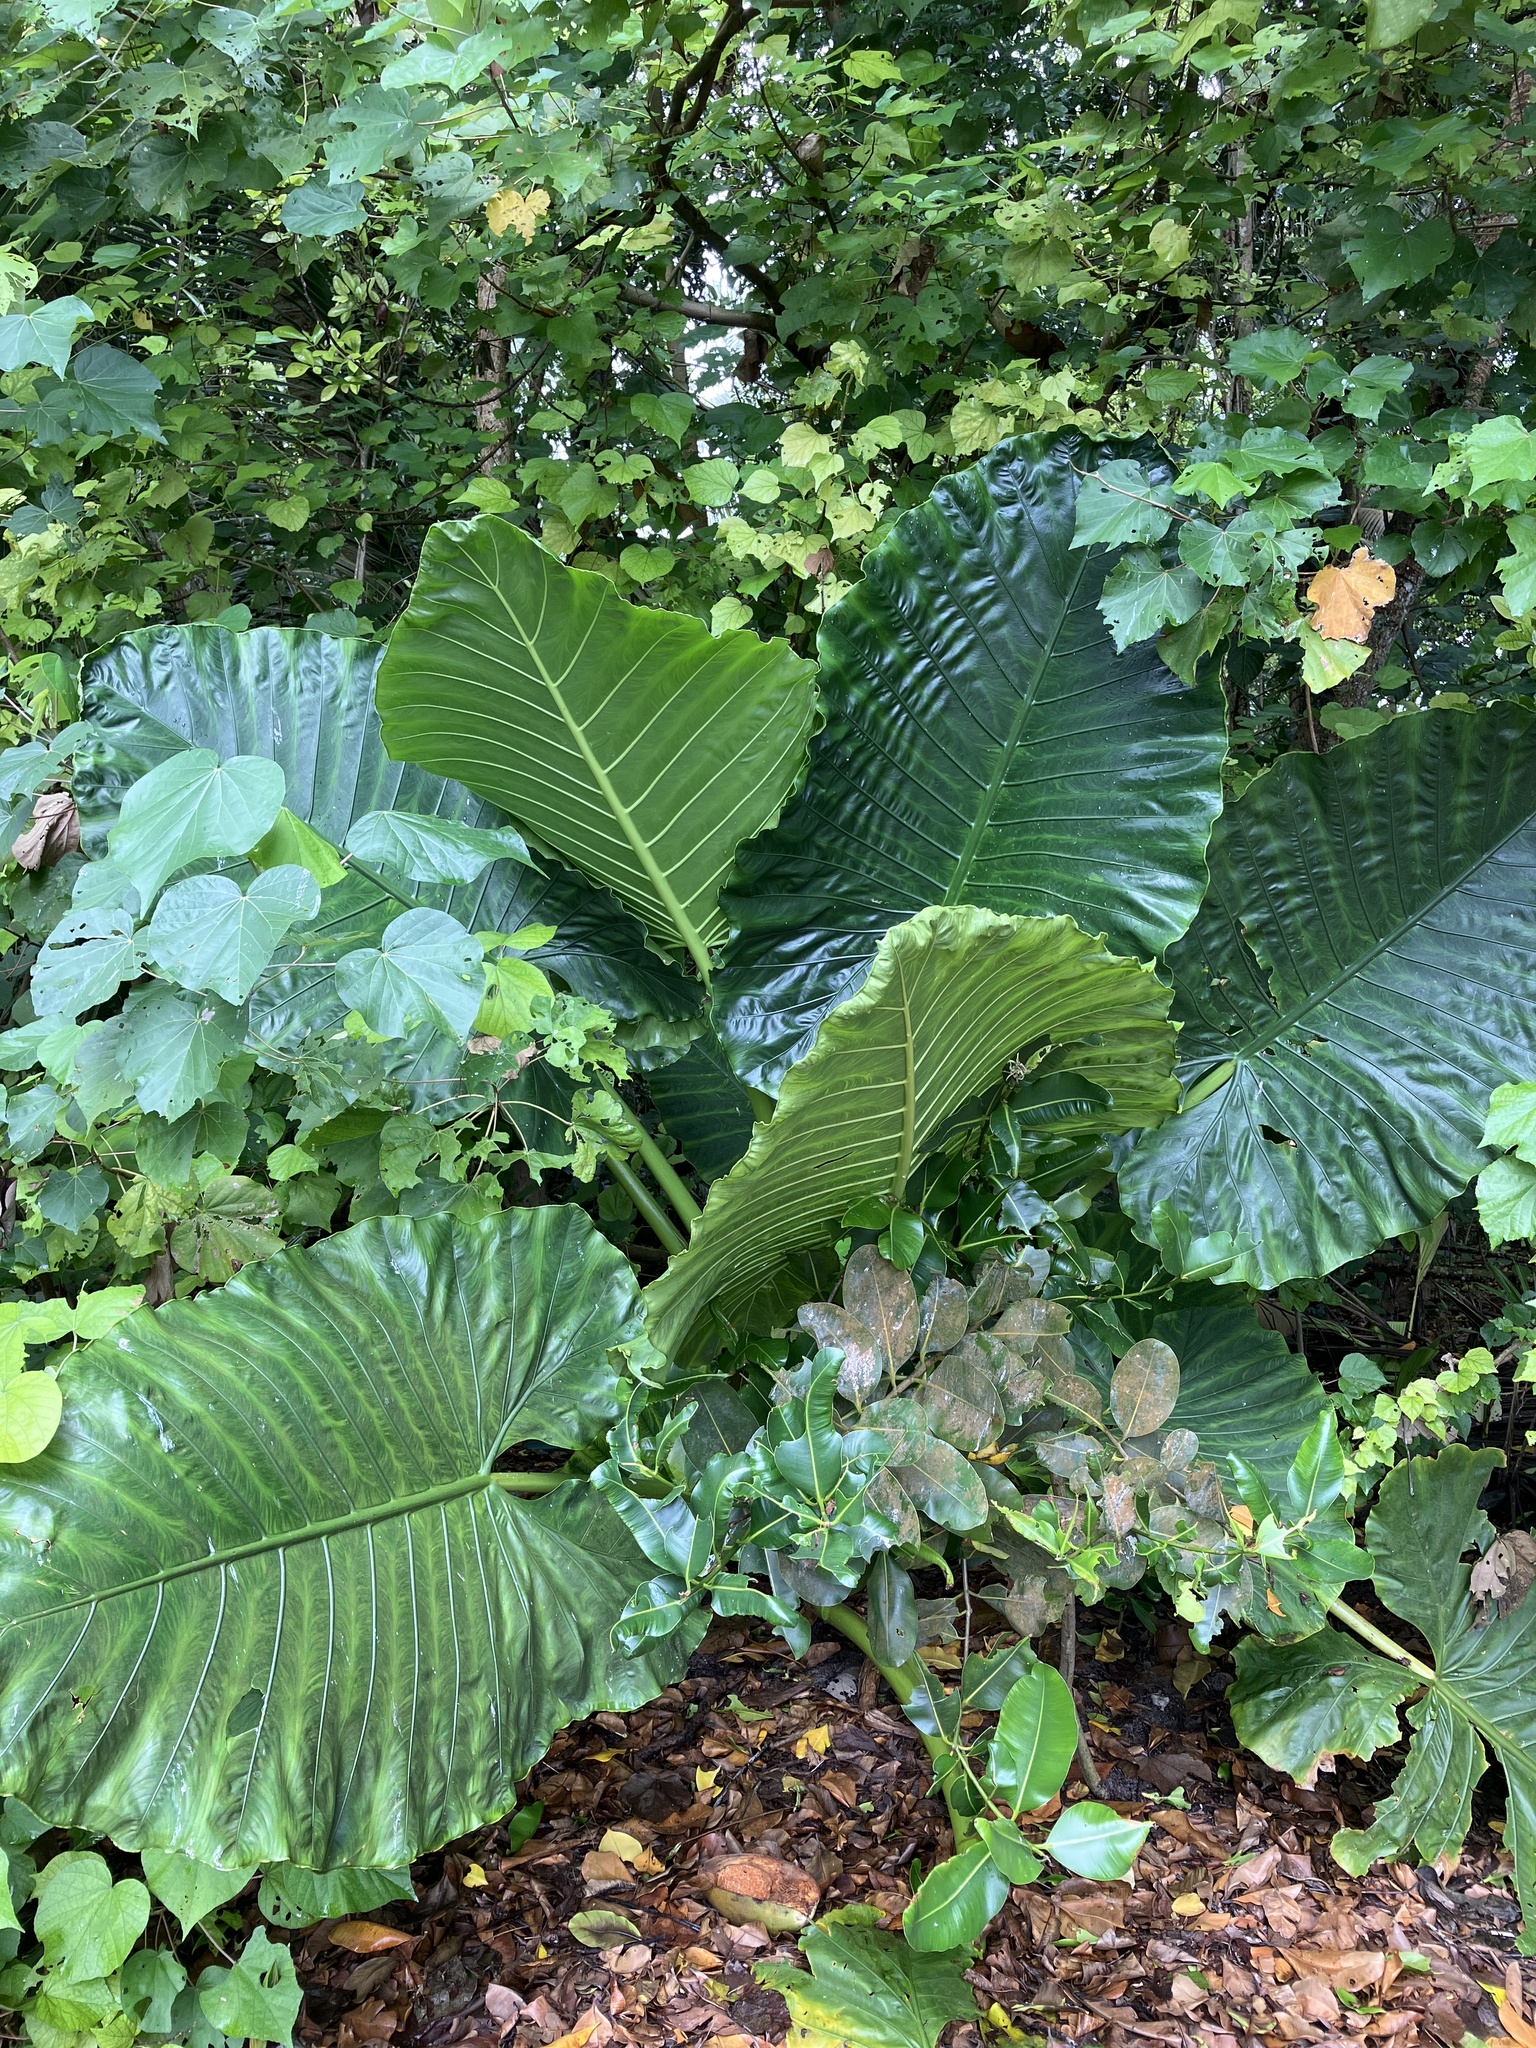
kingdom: Plantae
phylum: Tracheophyta
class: Liliopsida
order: Alismatales
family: Araceae
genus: Alocasia
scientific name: Alocasia macrorrhizos
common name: Giant taro
